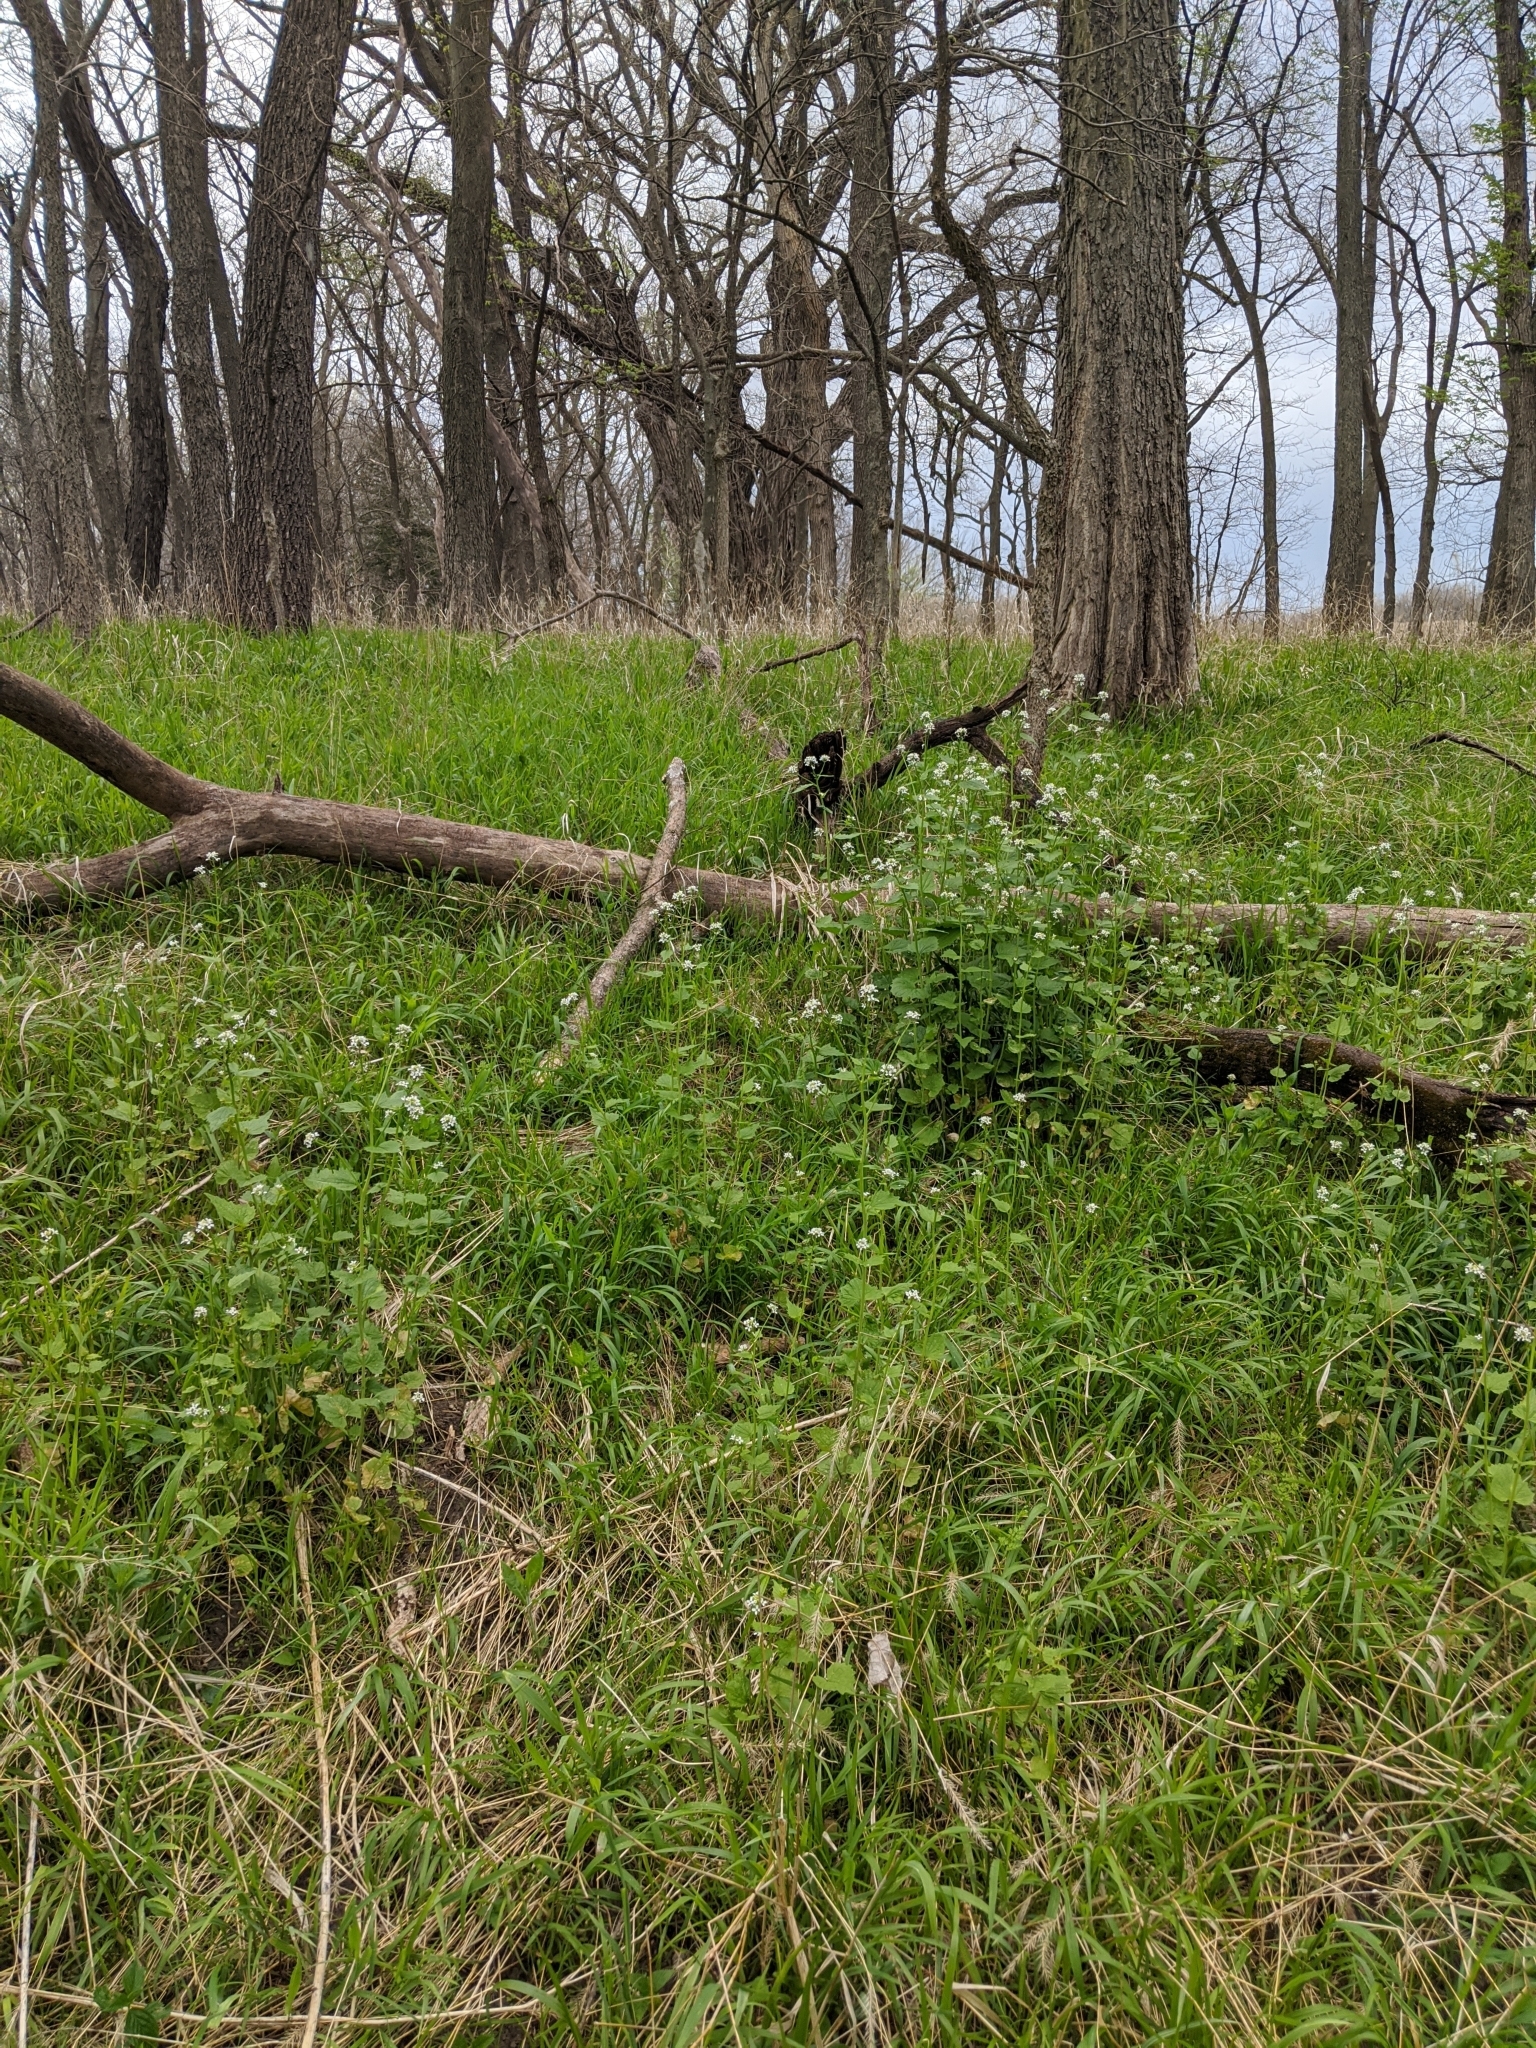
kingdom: Plantae
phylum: Tracheophyta
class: Magnoliopsida
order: Brassicales
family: Brassicaceae
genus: Alliaria
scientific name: Alliaria petiolata
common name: Garlic mustard
